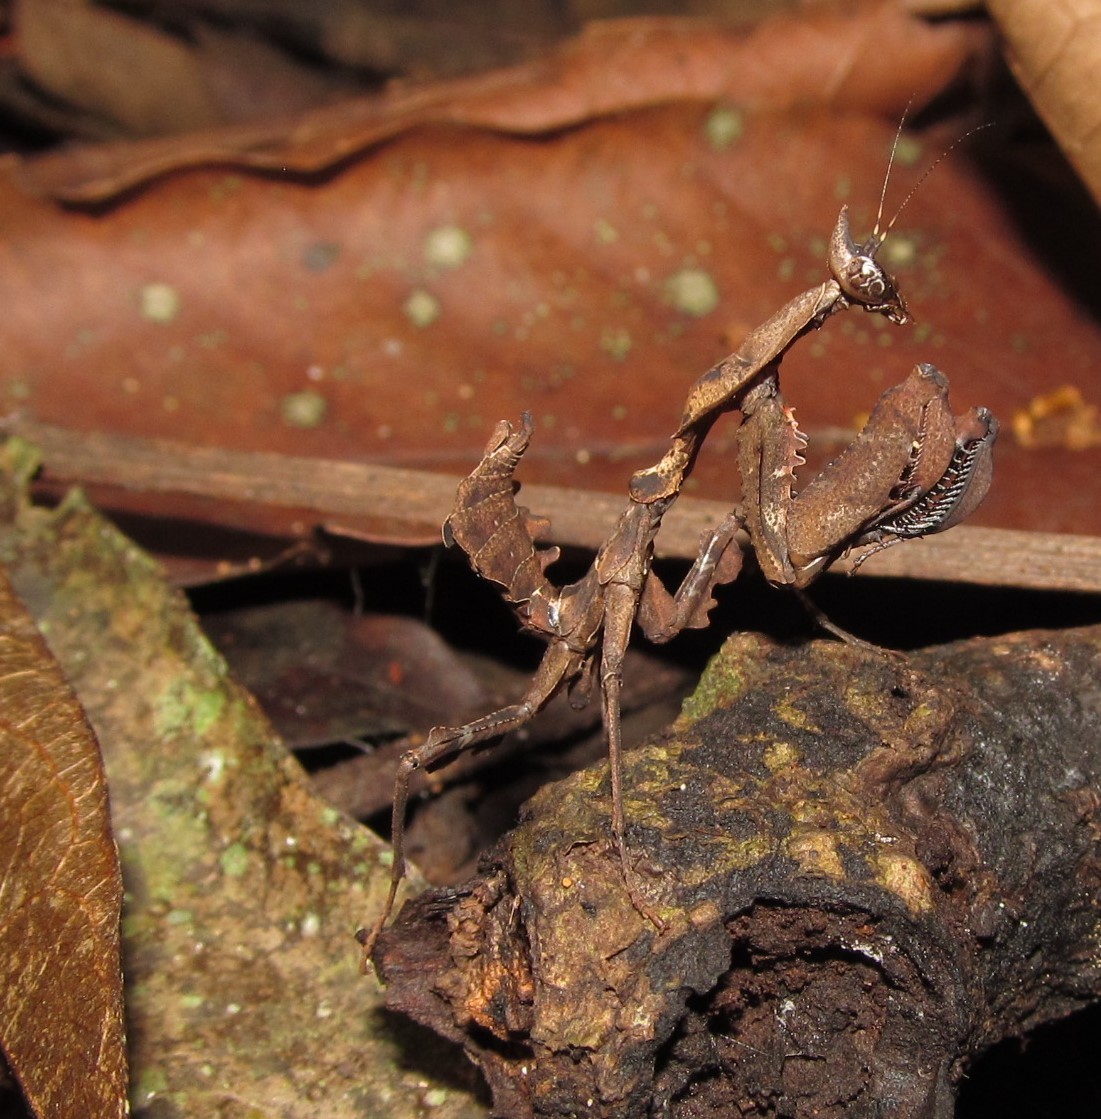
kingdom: Animalia
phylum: Arthropoda
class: Insecta
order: Mantodea
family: Hymenopodidae
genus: Parablepharis
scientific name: Parablepharis kuhlii
